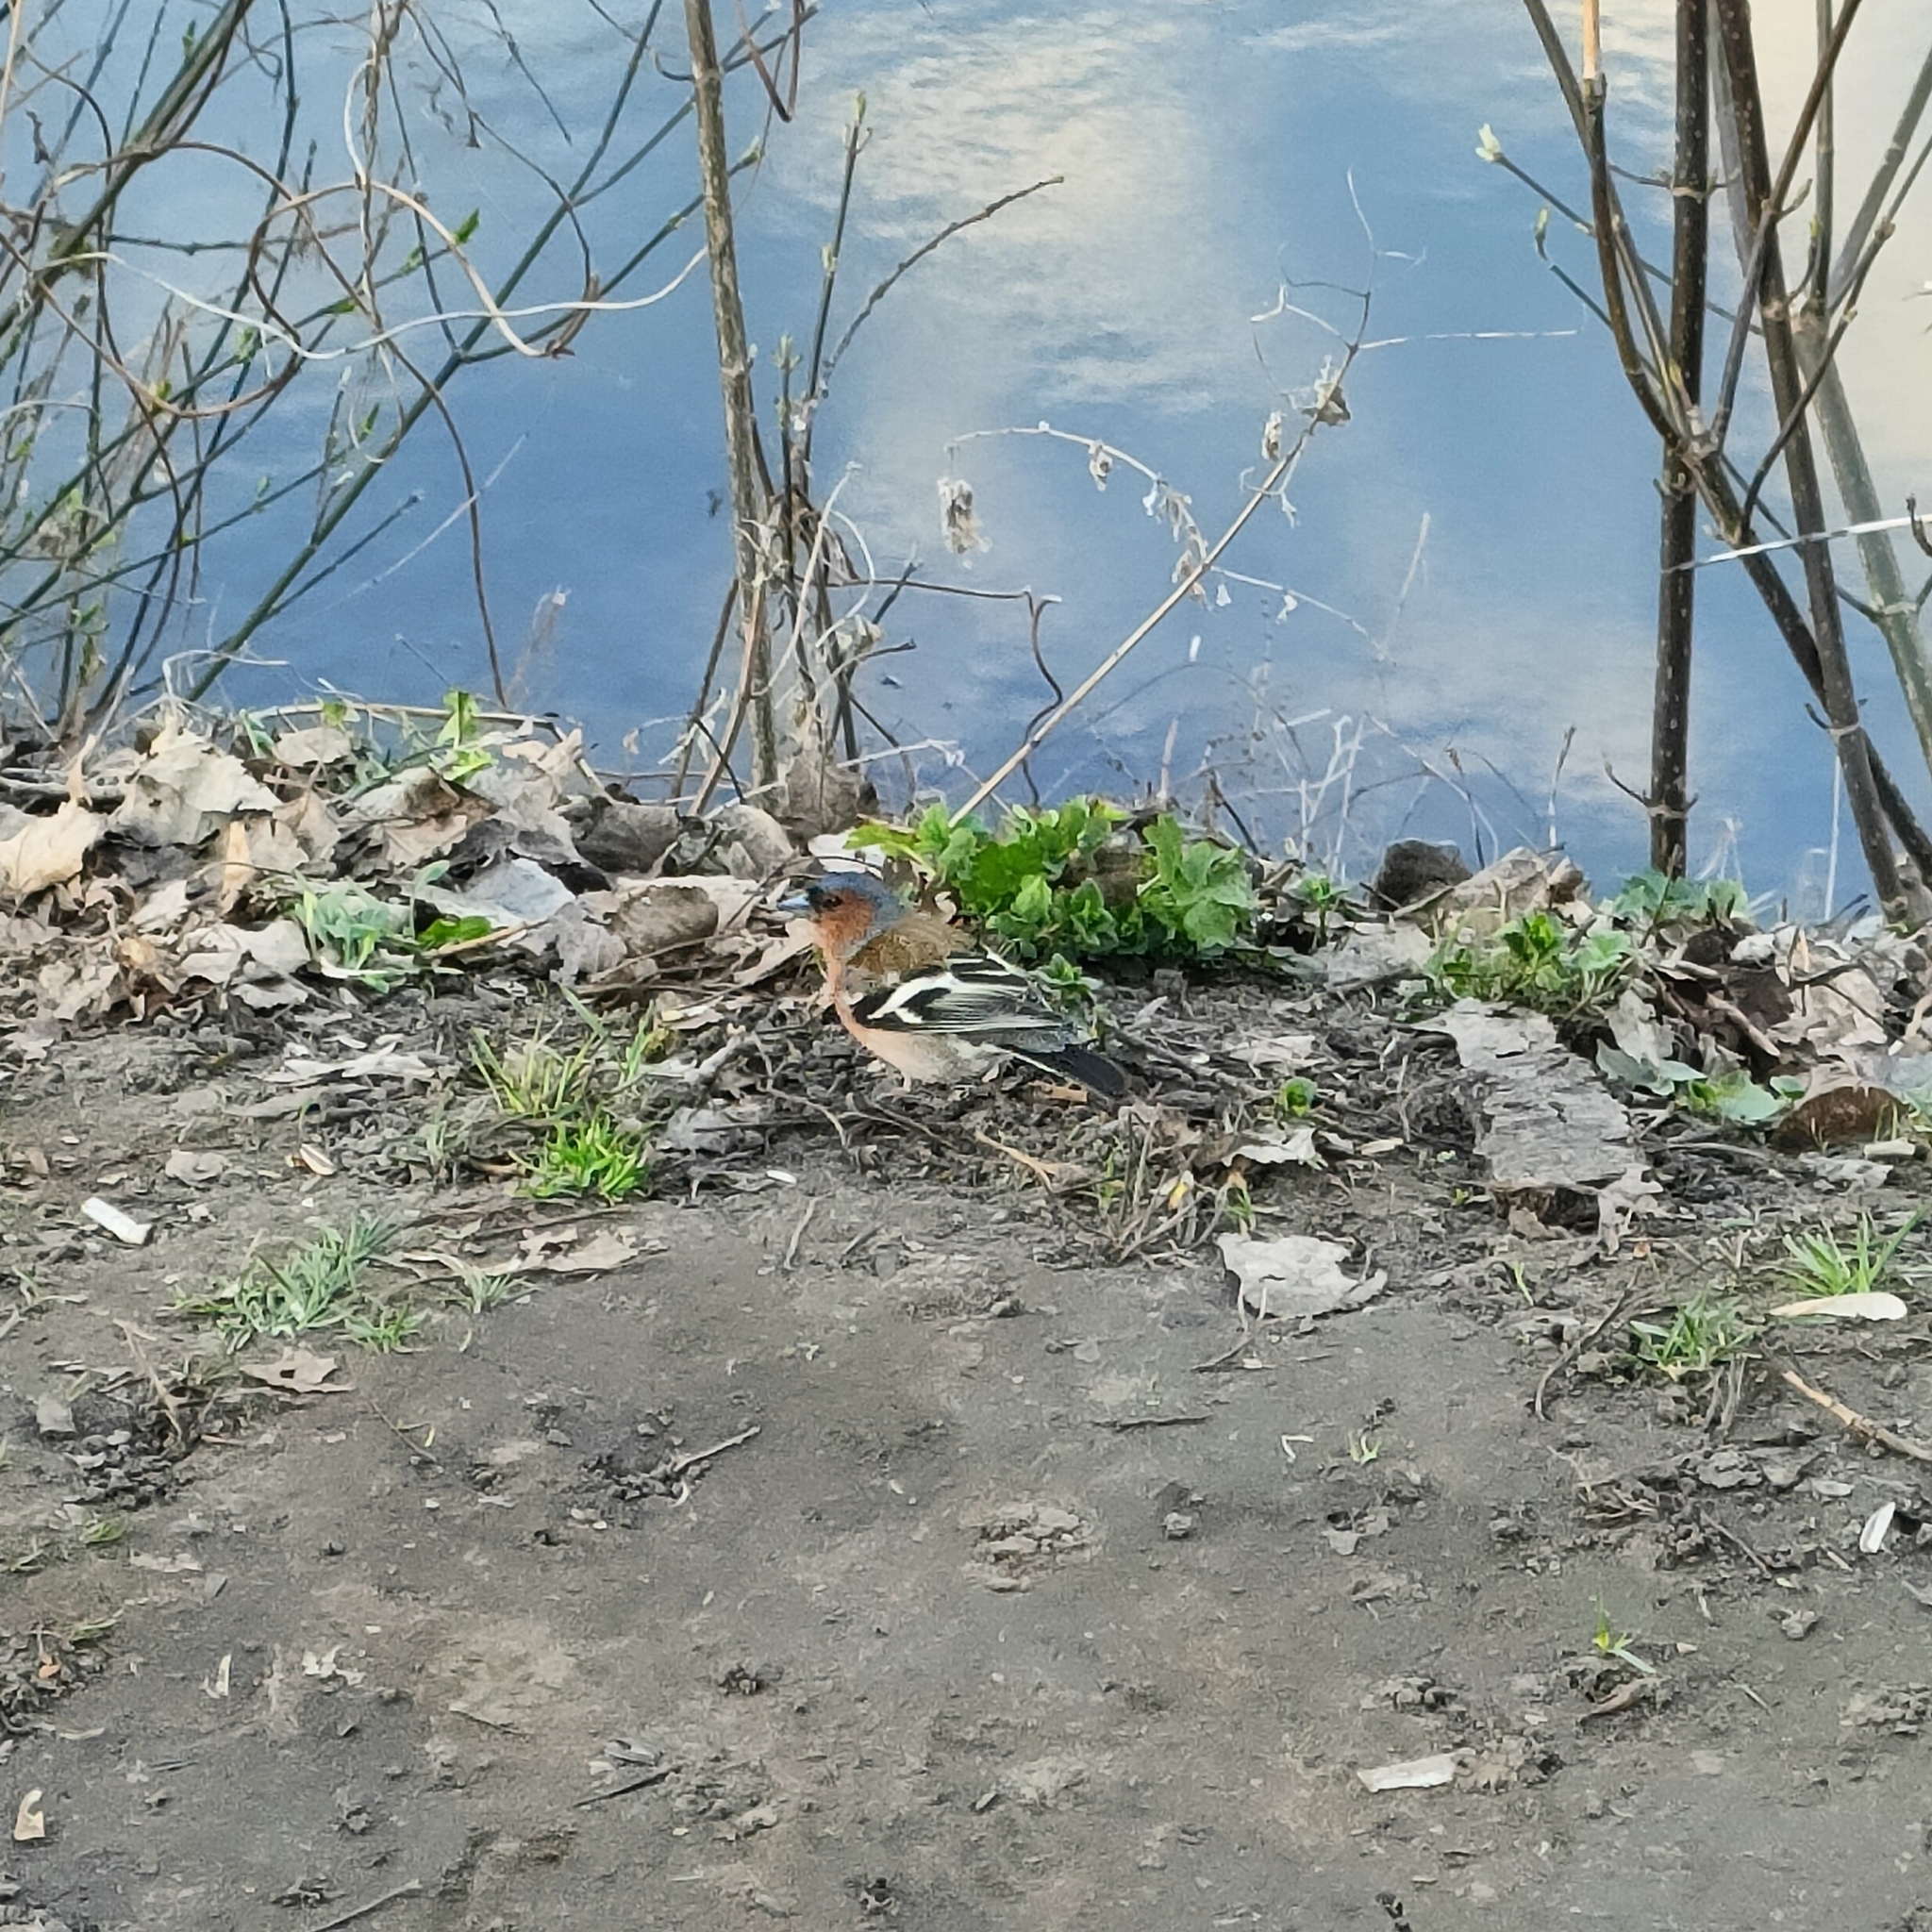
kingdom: Animalia
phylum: Chordata
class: Aves
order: Passeriformes
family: Fringillidae
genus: Fringilla
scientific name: Fringilla coelebs
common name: Common chaffinch
